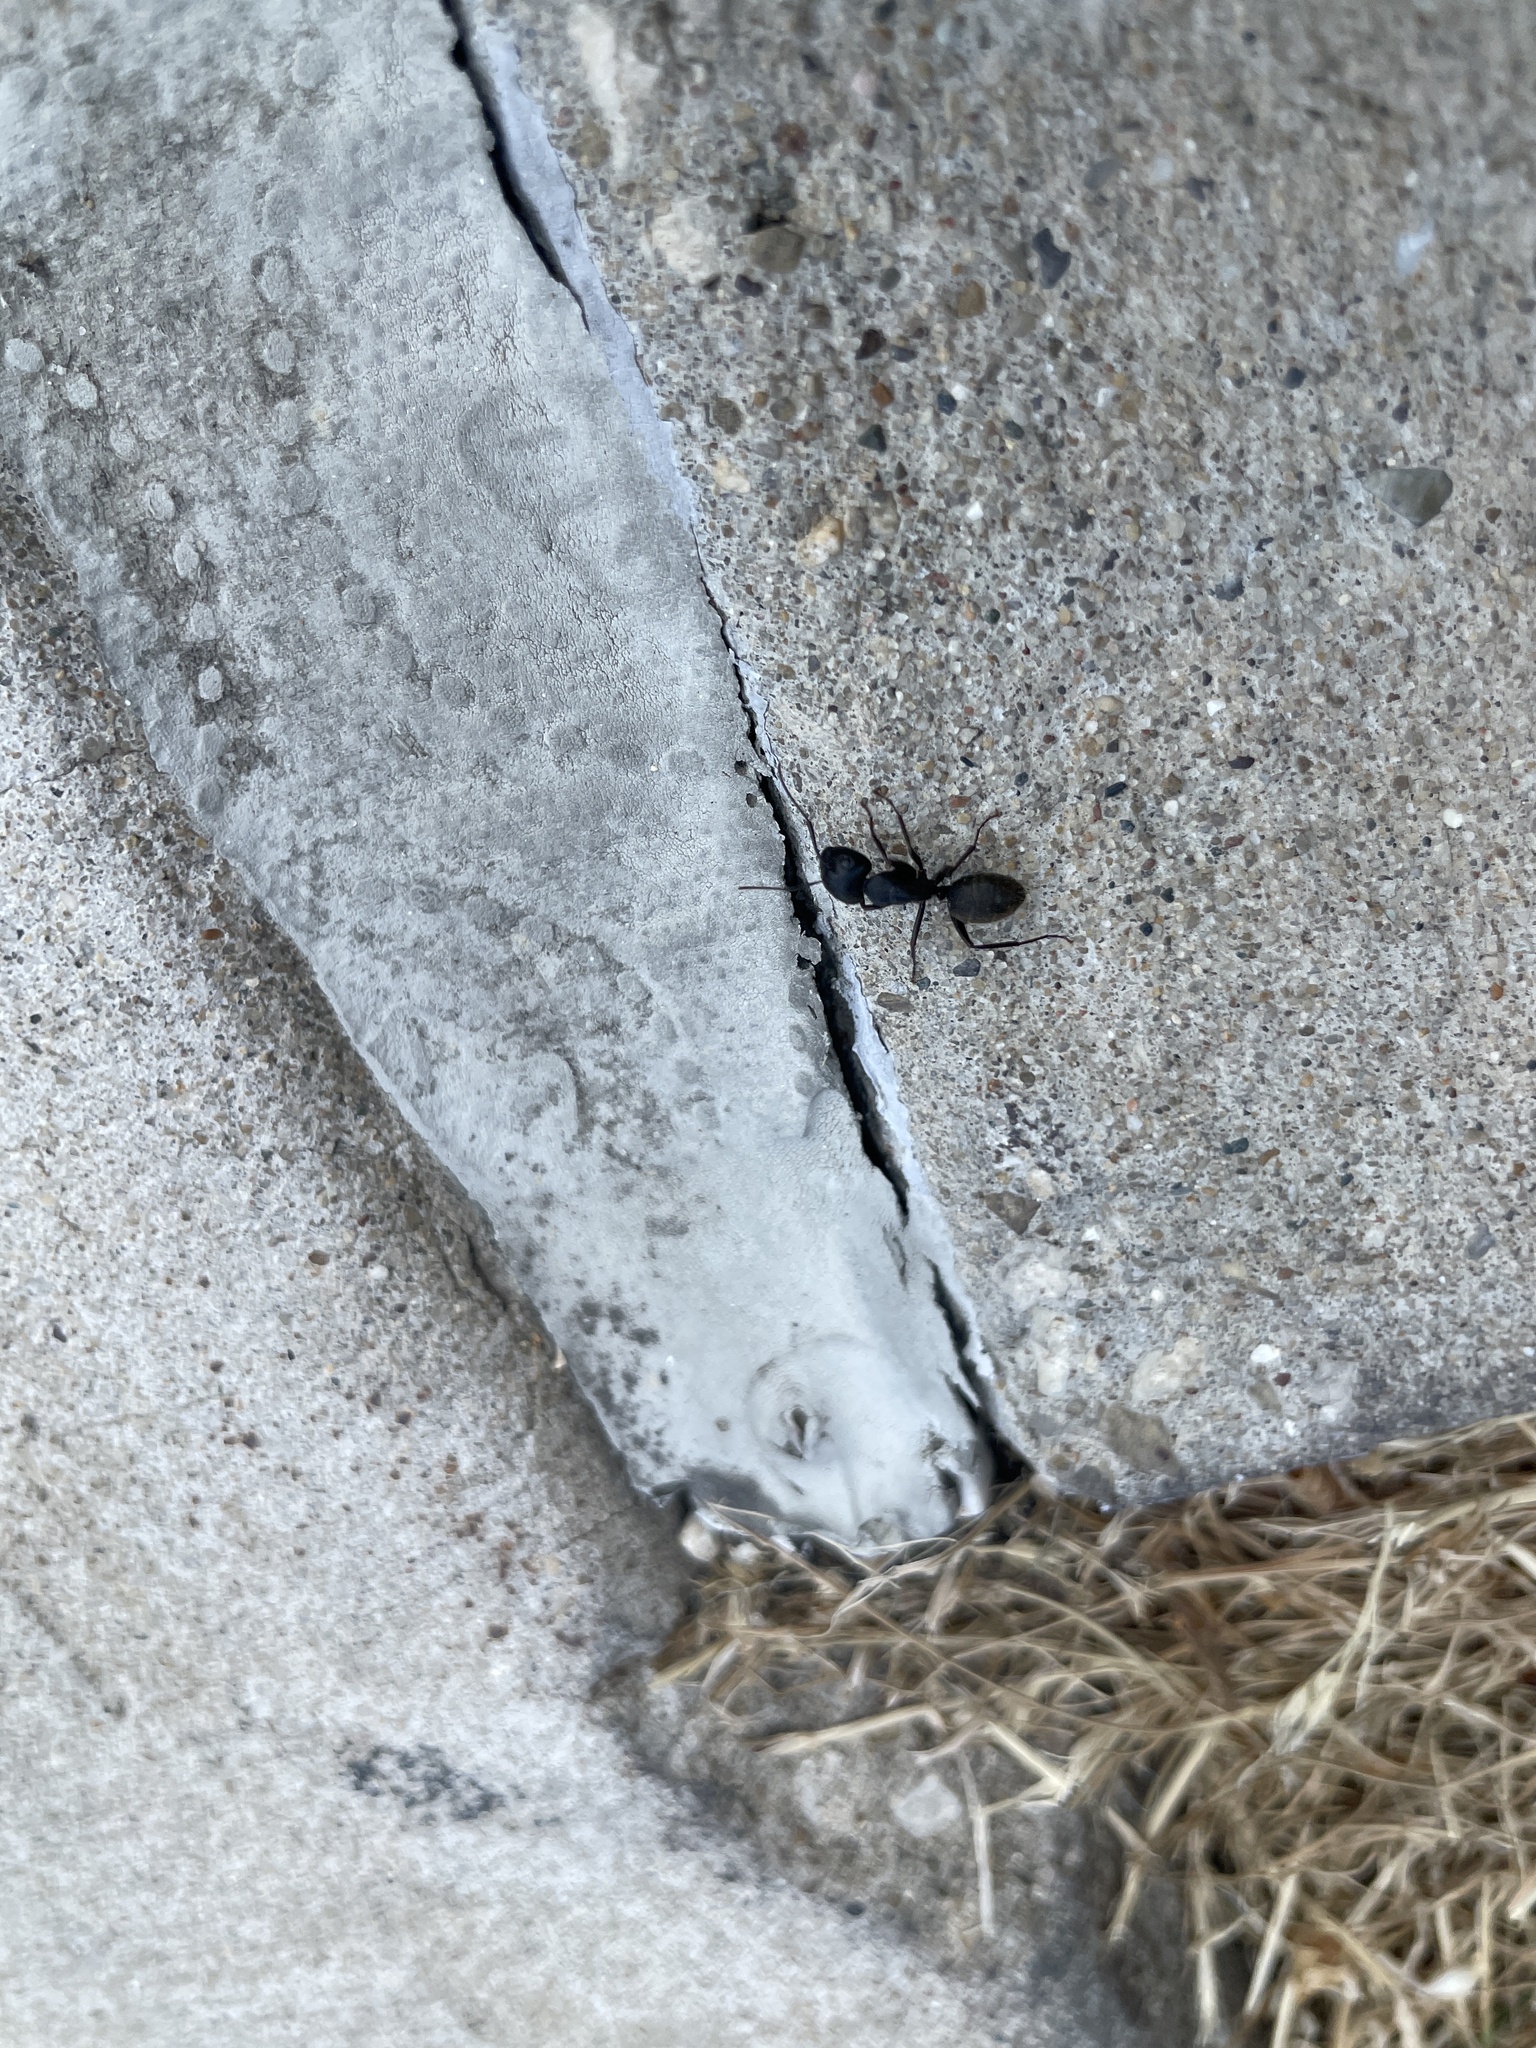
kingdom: Animalia
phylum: Arthropoda
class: Insecta
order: Hymenoptera
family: Formicidae
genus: Camponotus
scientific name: Camponotus pennsylvanicus
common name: Black carpenter ant
